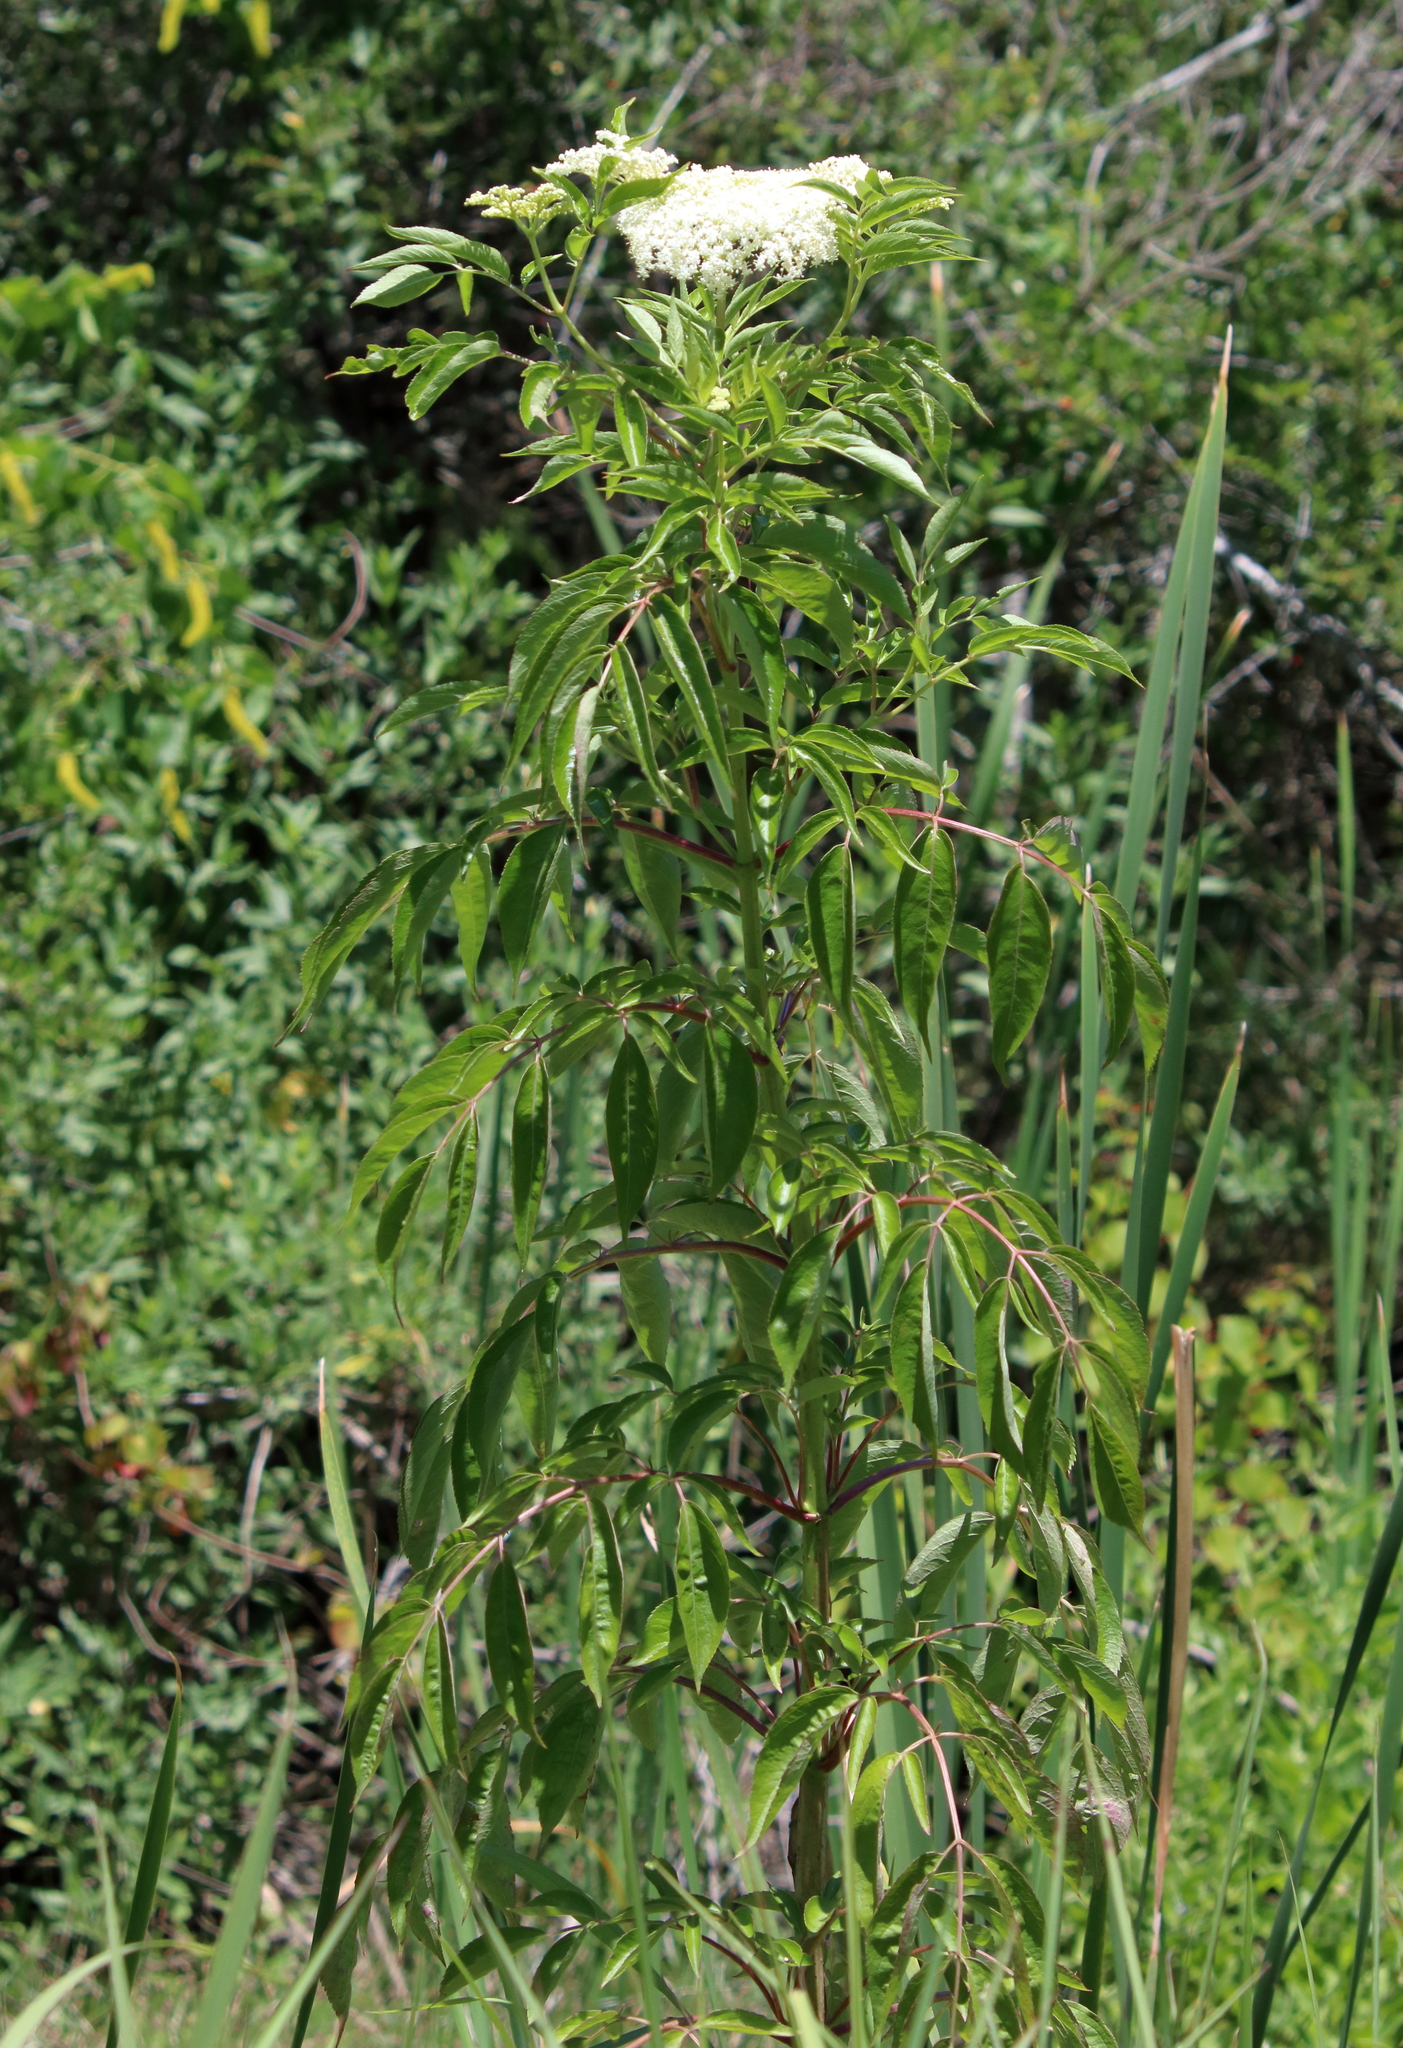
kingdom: Plantae
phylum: Tracheophyta
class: Magnoliopsida
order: Dipsacales
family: Viburnaceae
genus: Sambucus
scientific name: Sambucus canadensis
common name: American elder
